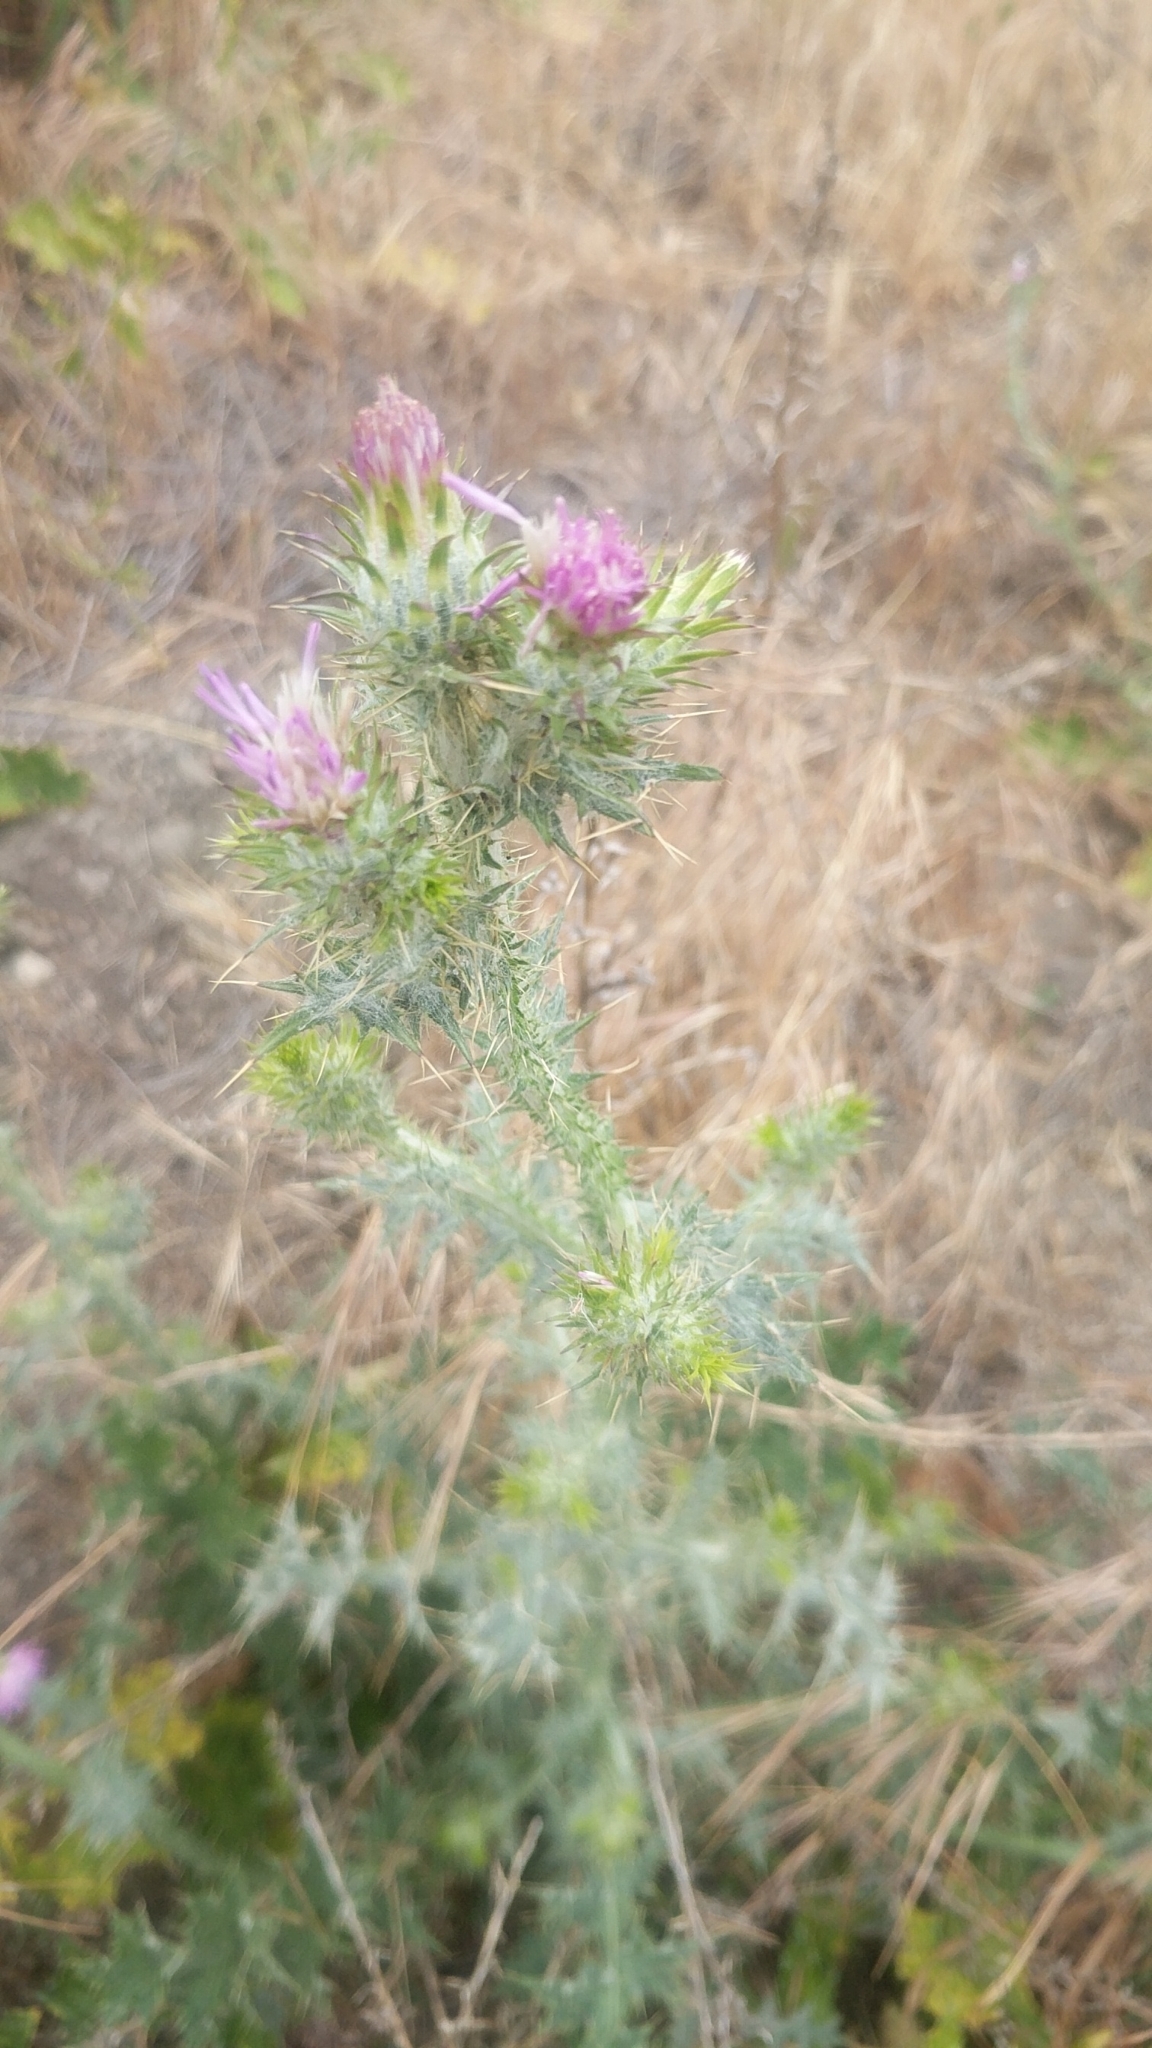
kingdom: Plantae
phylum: Tracheophyta
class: Magnoliopsida
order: Asterales
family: Asteraceae
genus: Carduus
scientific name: Carduus pycnocephalus
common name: Plymouth thistle
